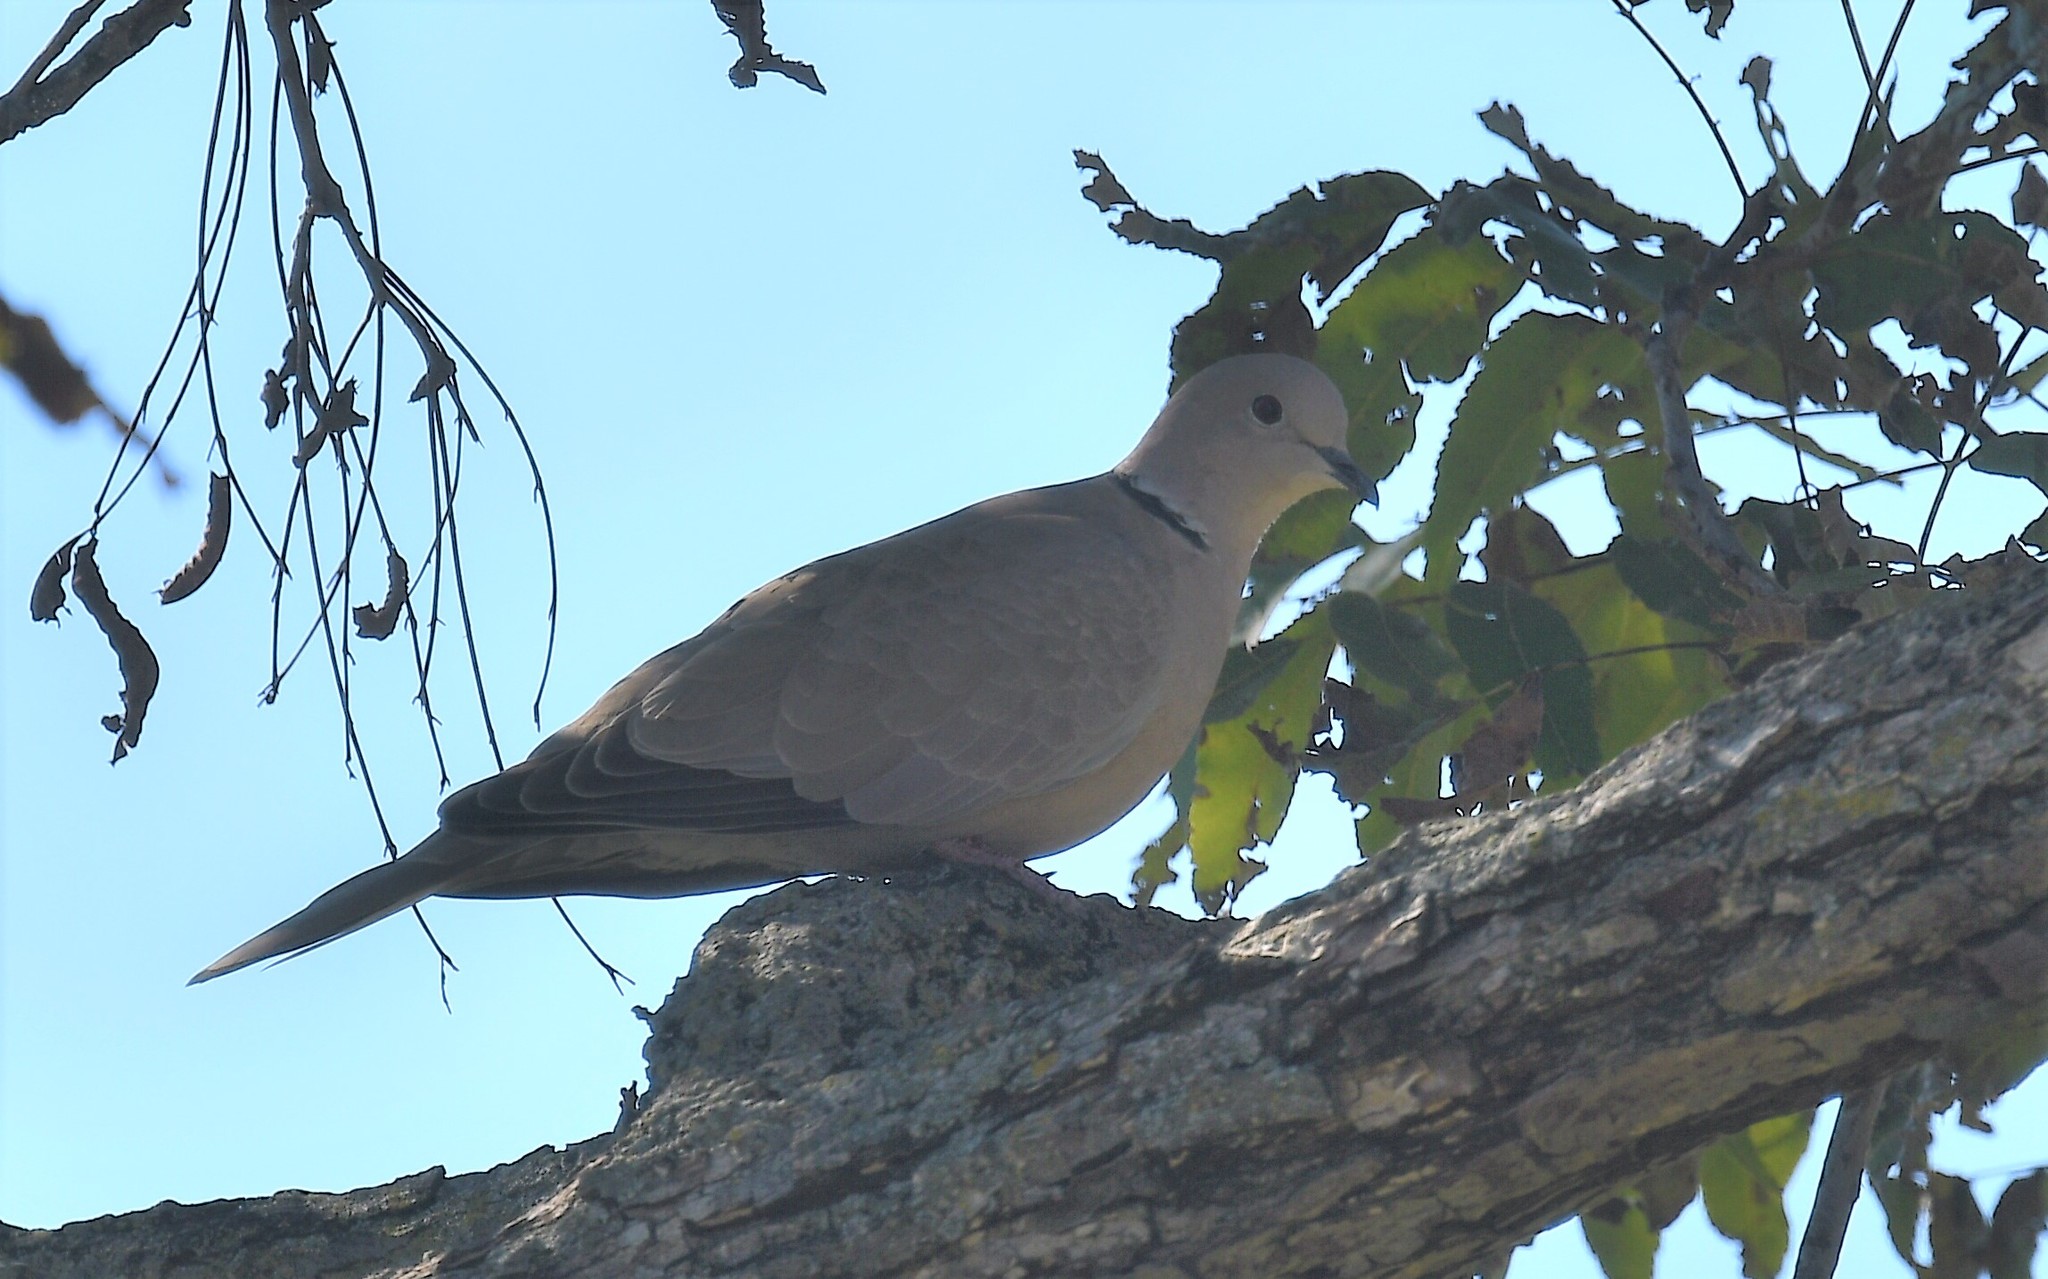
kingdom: Animalia
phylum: Chordata
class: Aves
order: Columbiformes
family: Columbidae
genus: Streptopelia
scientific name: Streptopelia decaocto
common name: Eurasian collared dove
